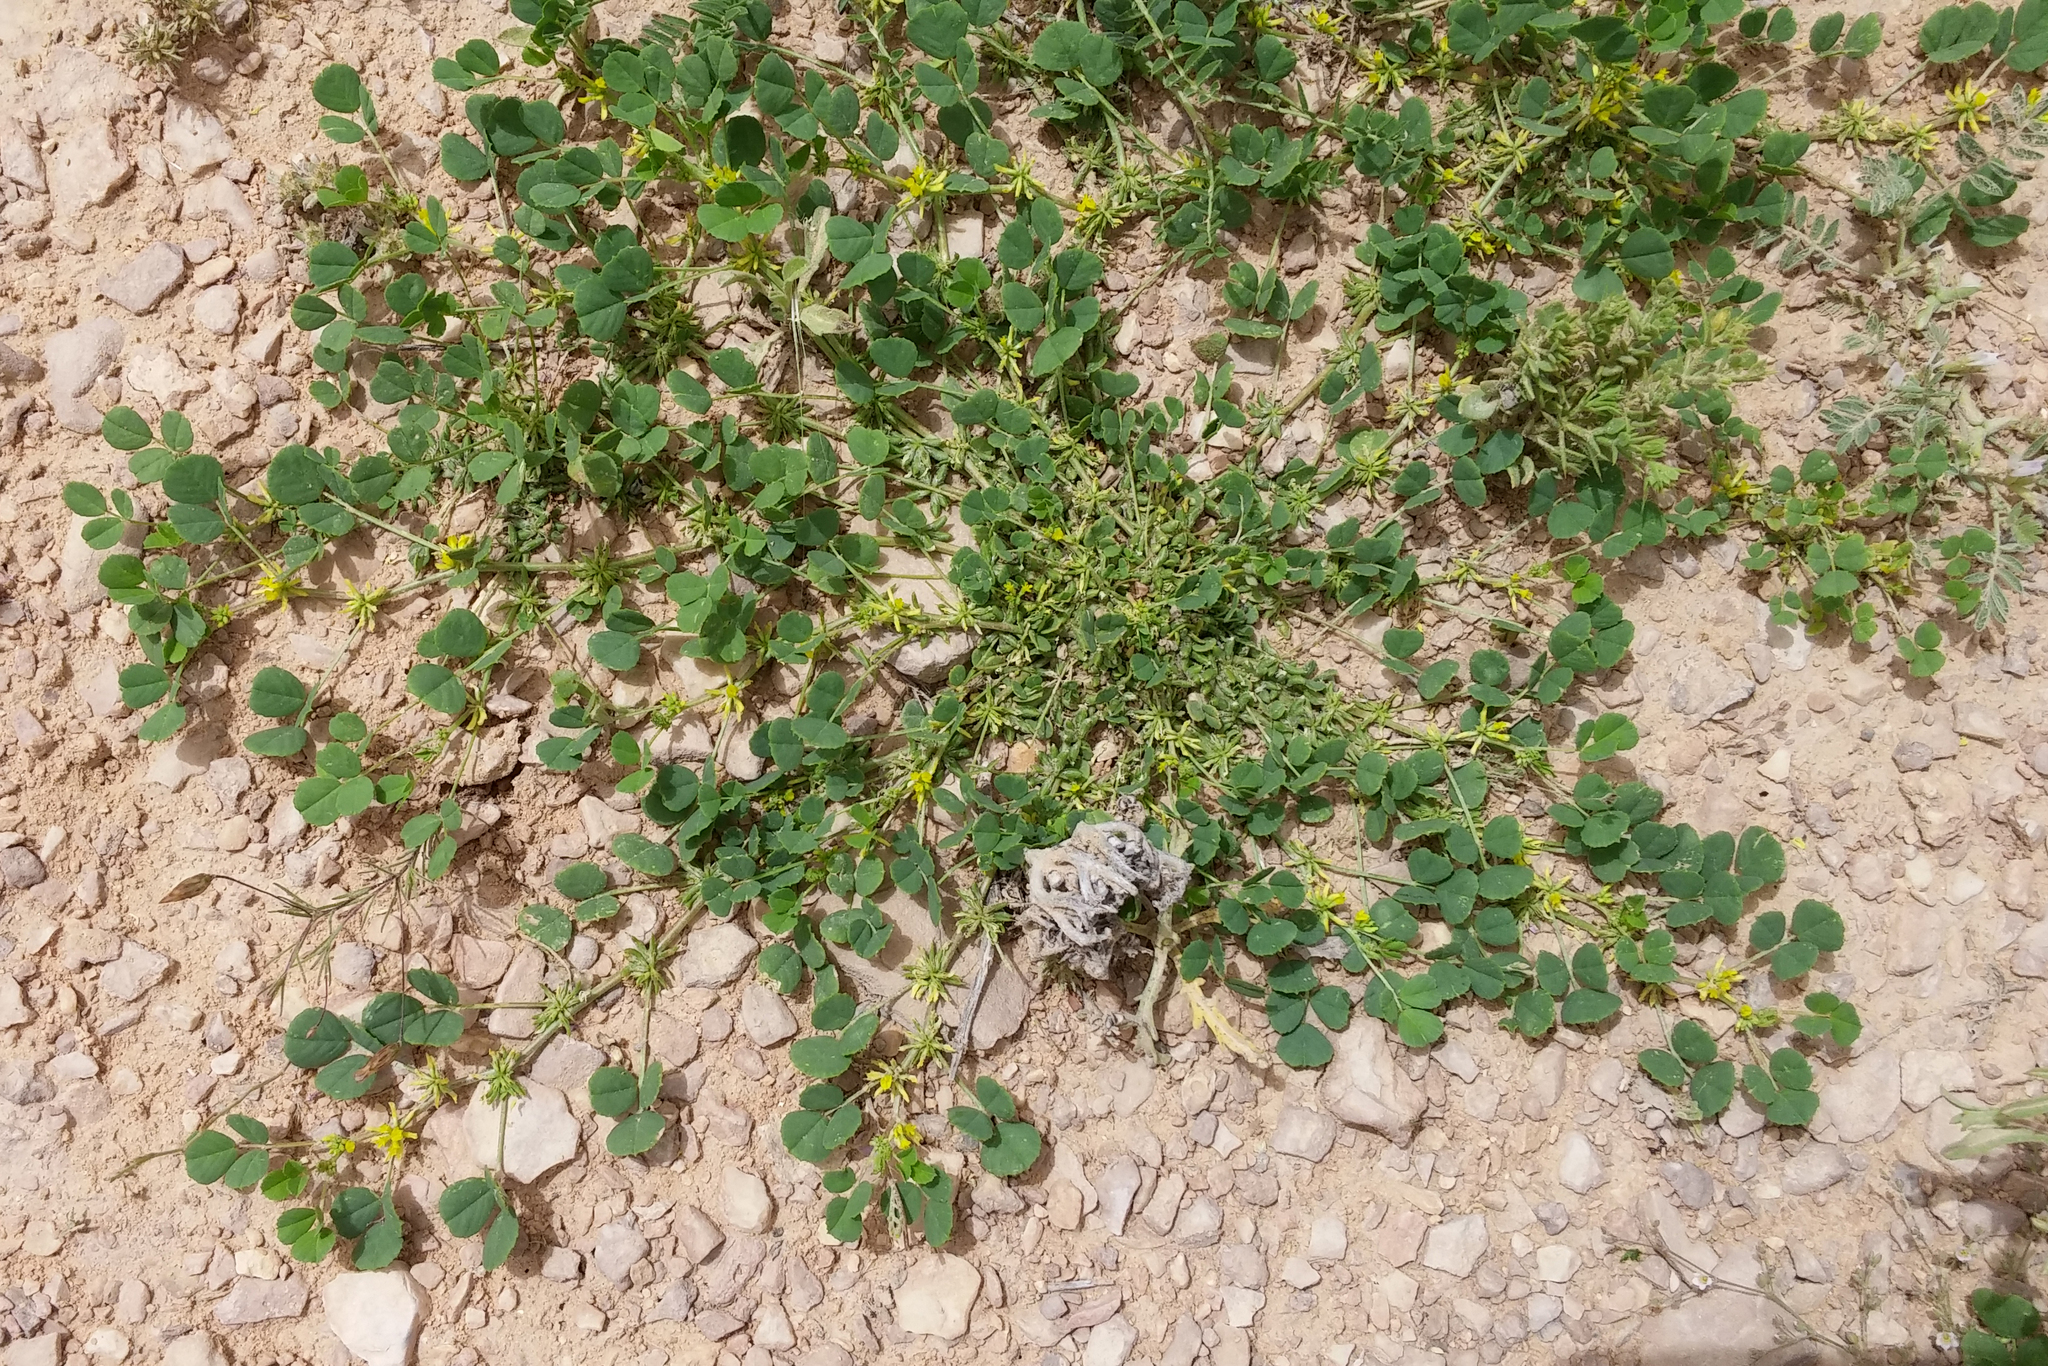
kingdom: Plantae
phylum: Tracheophyta
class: Magnoliopsida
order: Fabales
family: Fabaceae
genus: Trigonella
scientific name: Trigonella stellata
